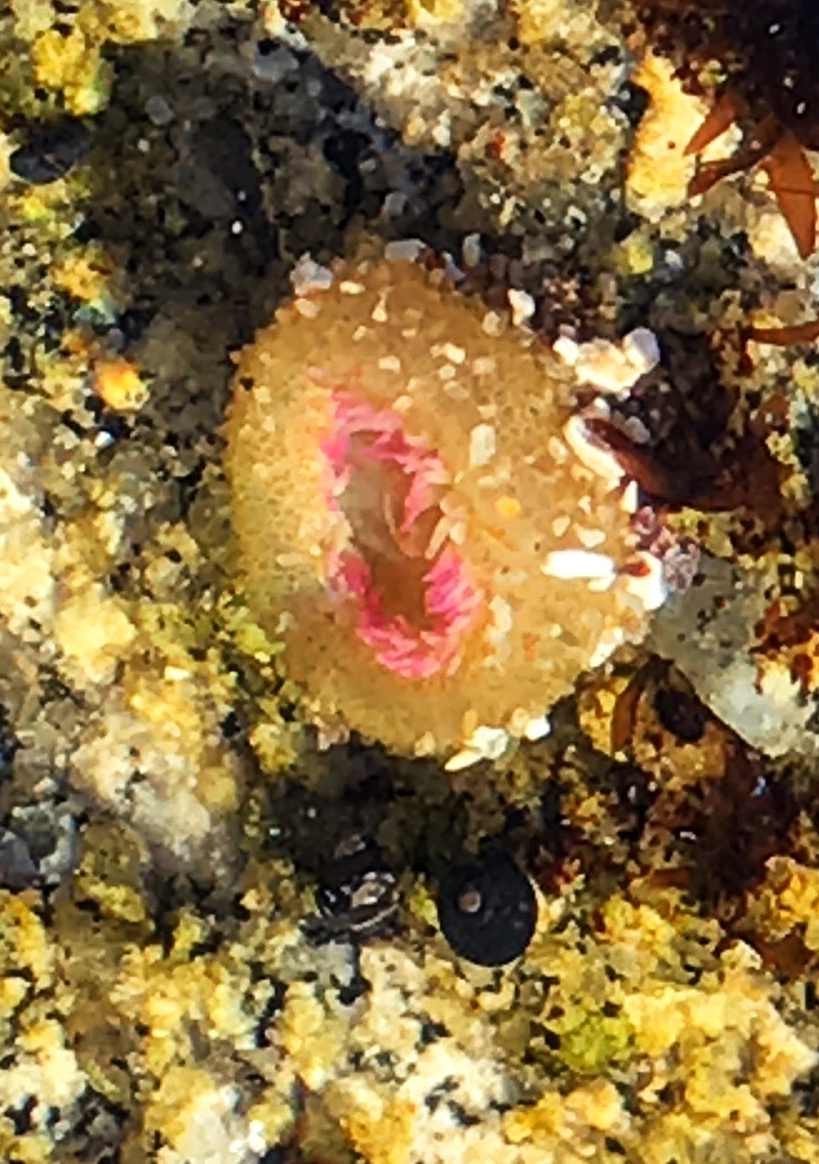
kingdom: Animalia
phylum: Cnidaria
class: Anthozoa
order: Actiniaria
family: Actiniidae
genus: Anthopleura
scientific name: Anthopleura elegantissima
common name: Clonal anemone
